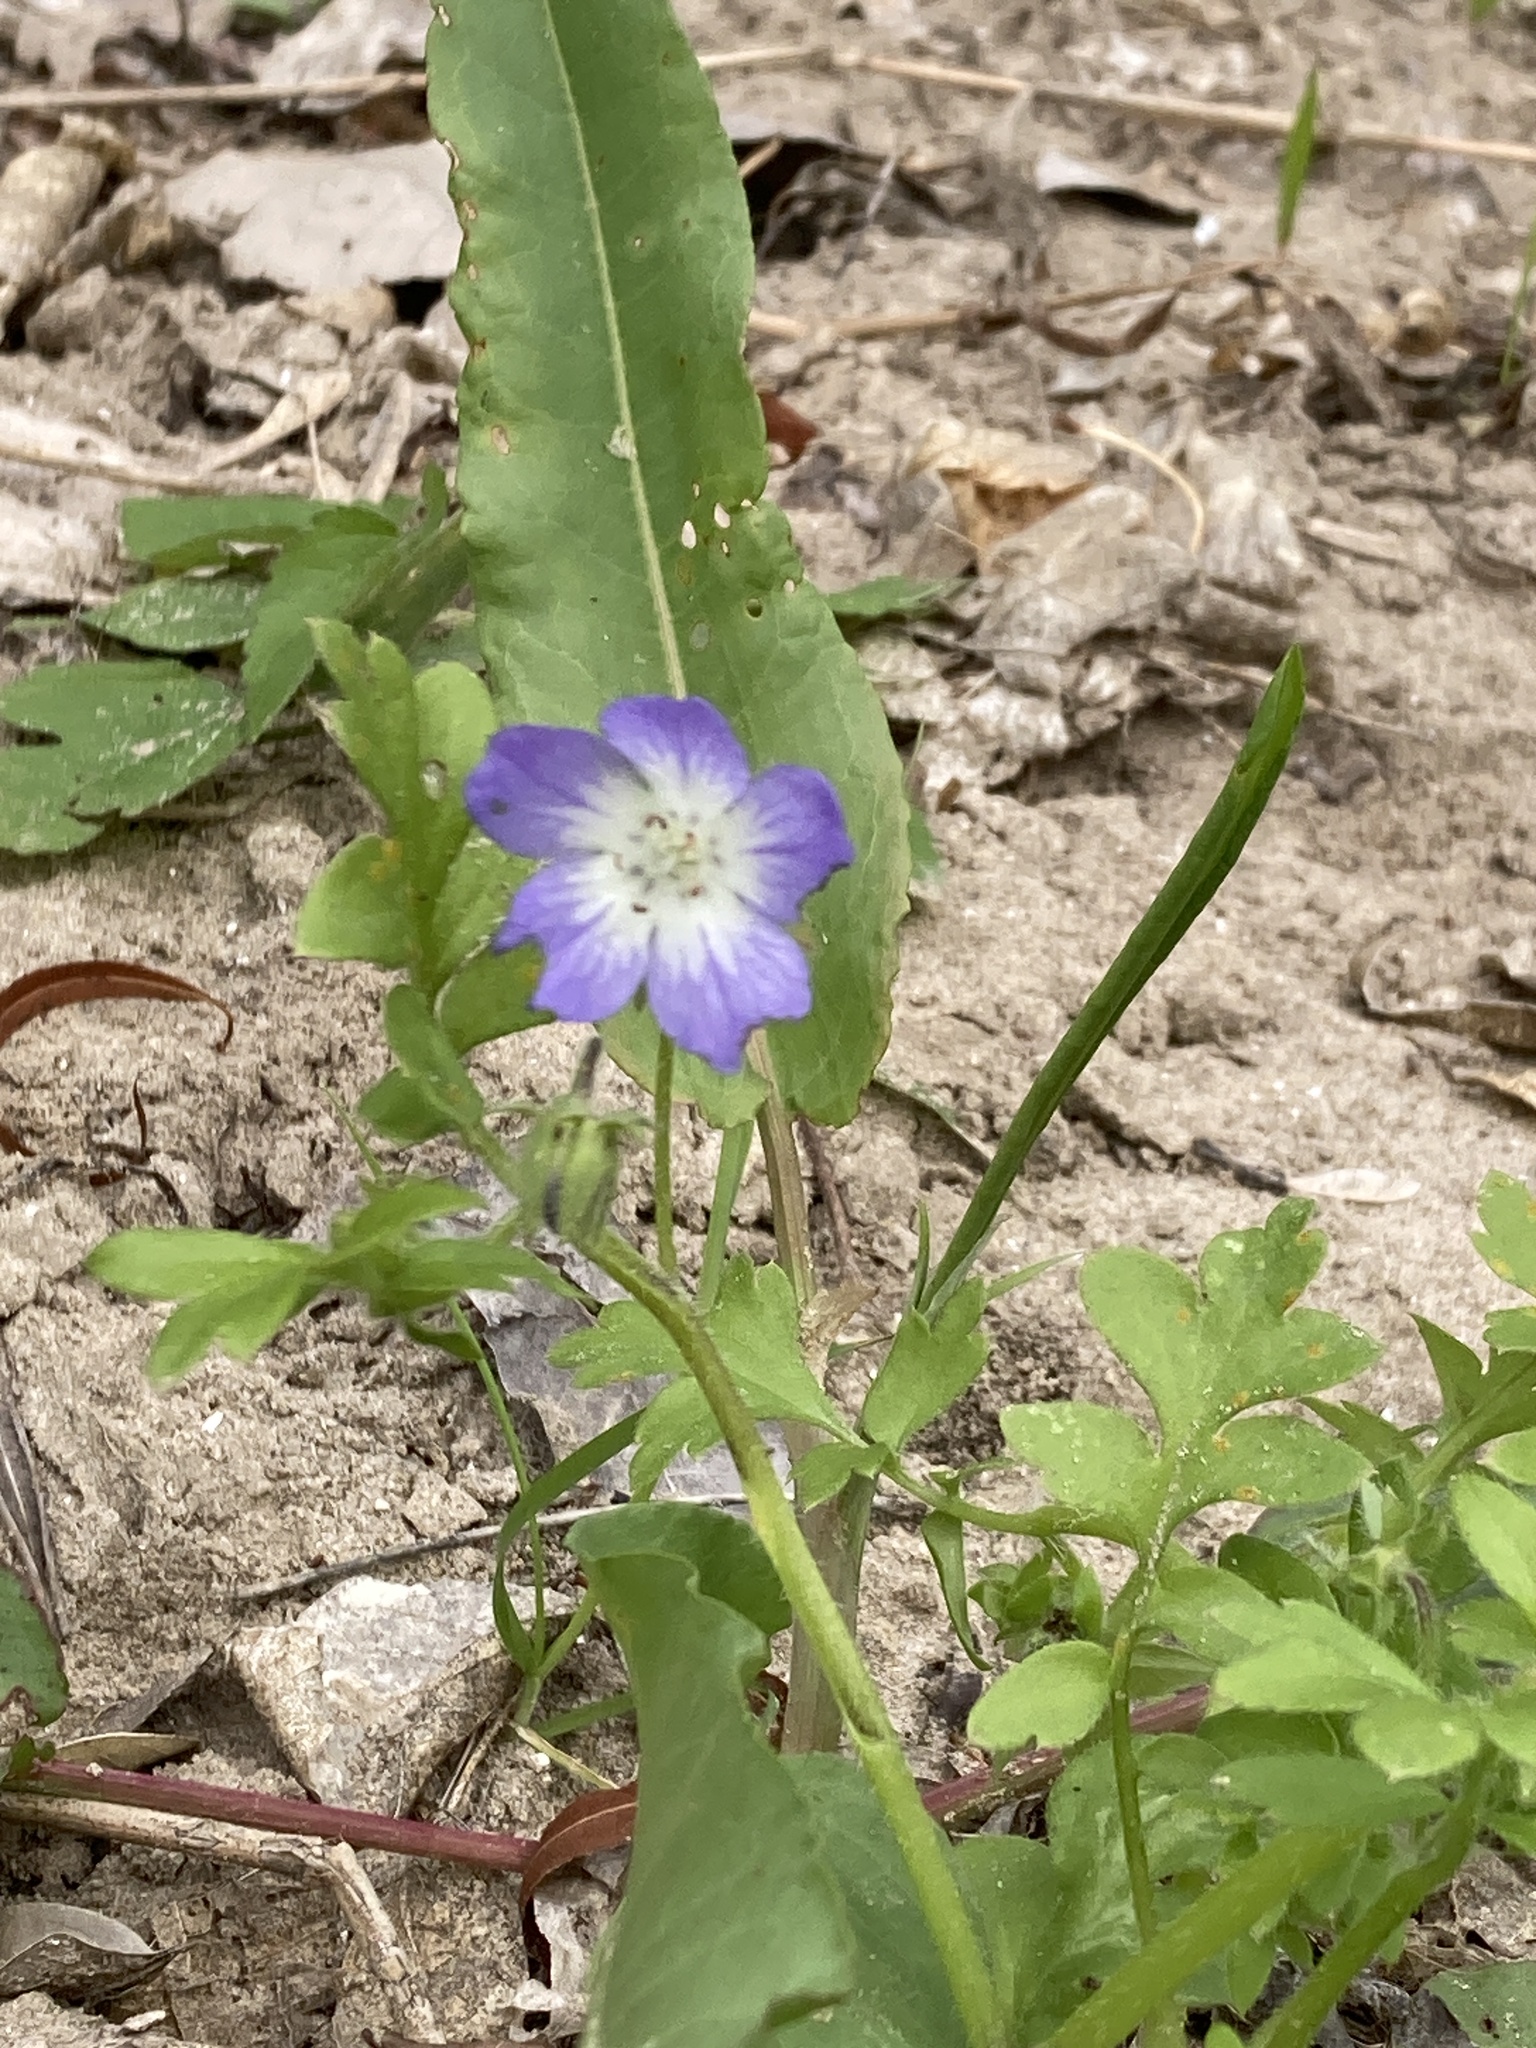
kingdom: Plantae
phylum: Tracheophyta
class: Magnoliopsida
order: Boraginales
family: Hydrophyllaceae
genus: Nemophila
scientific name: Nemophila phacelioides
